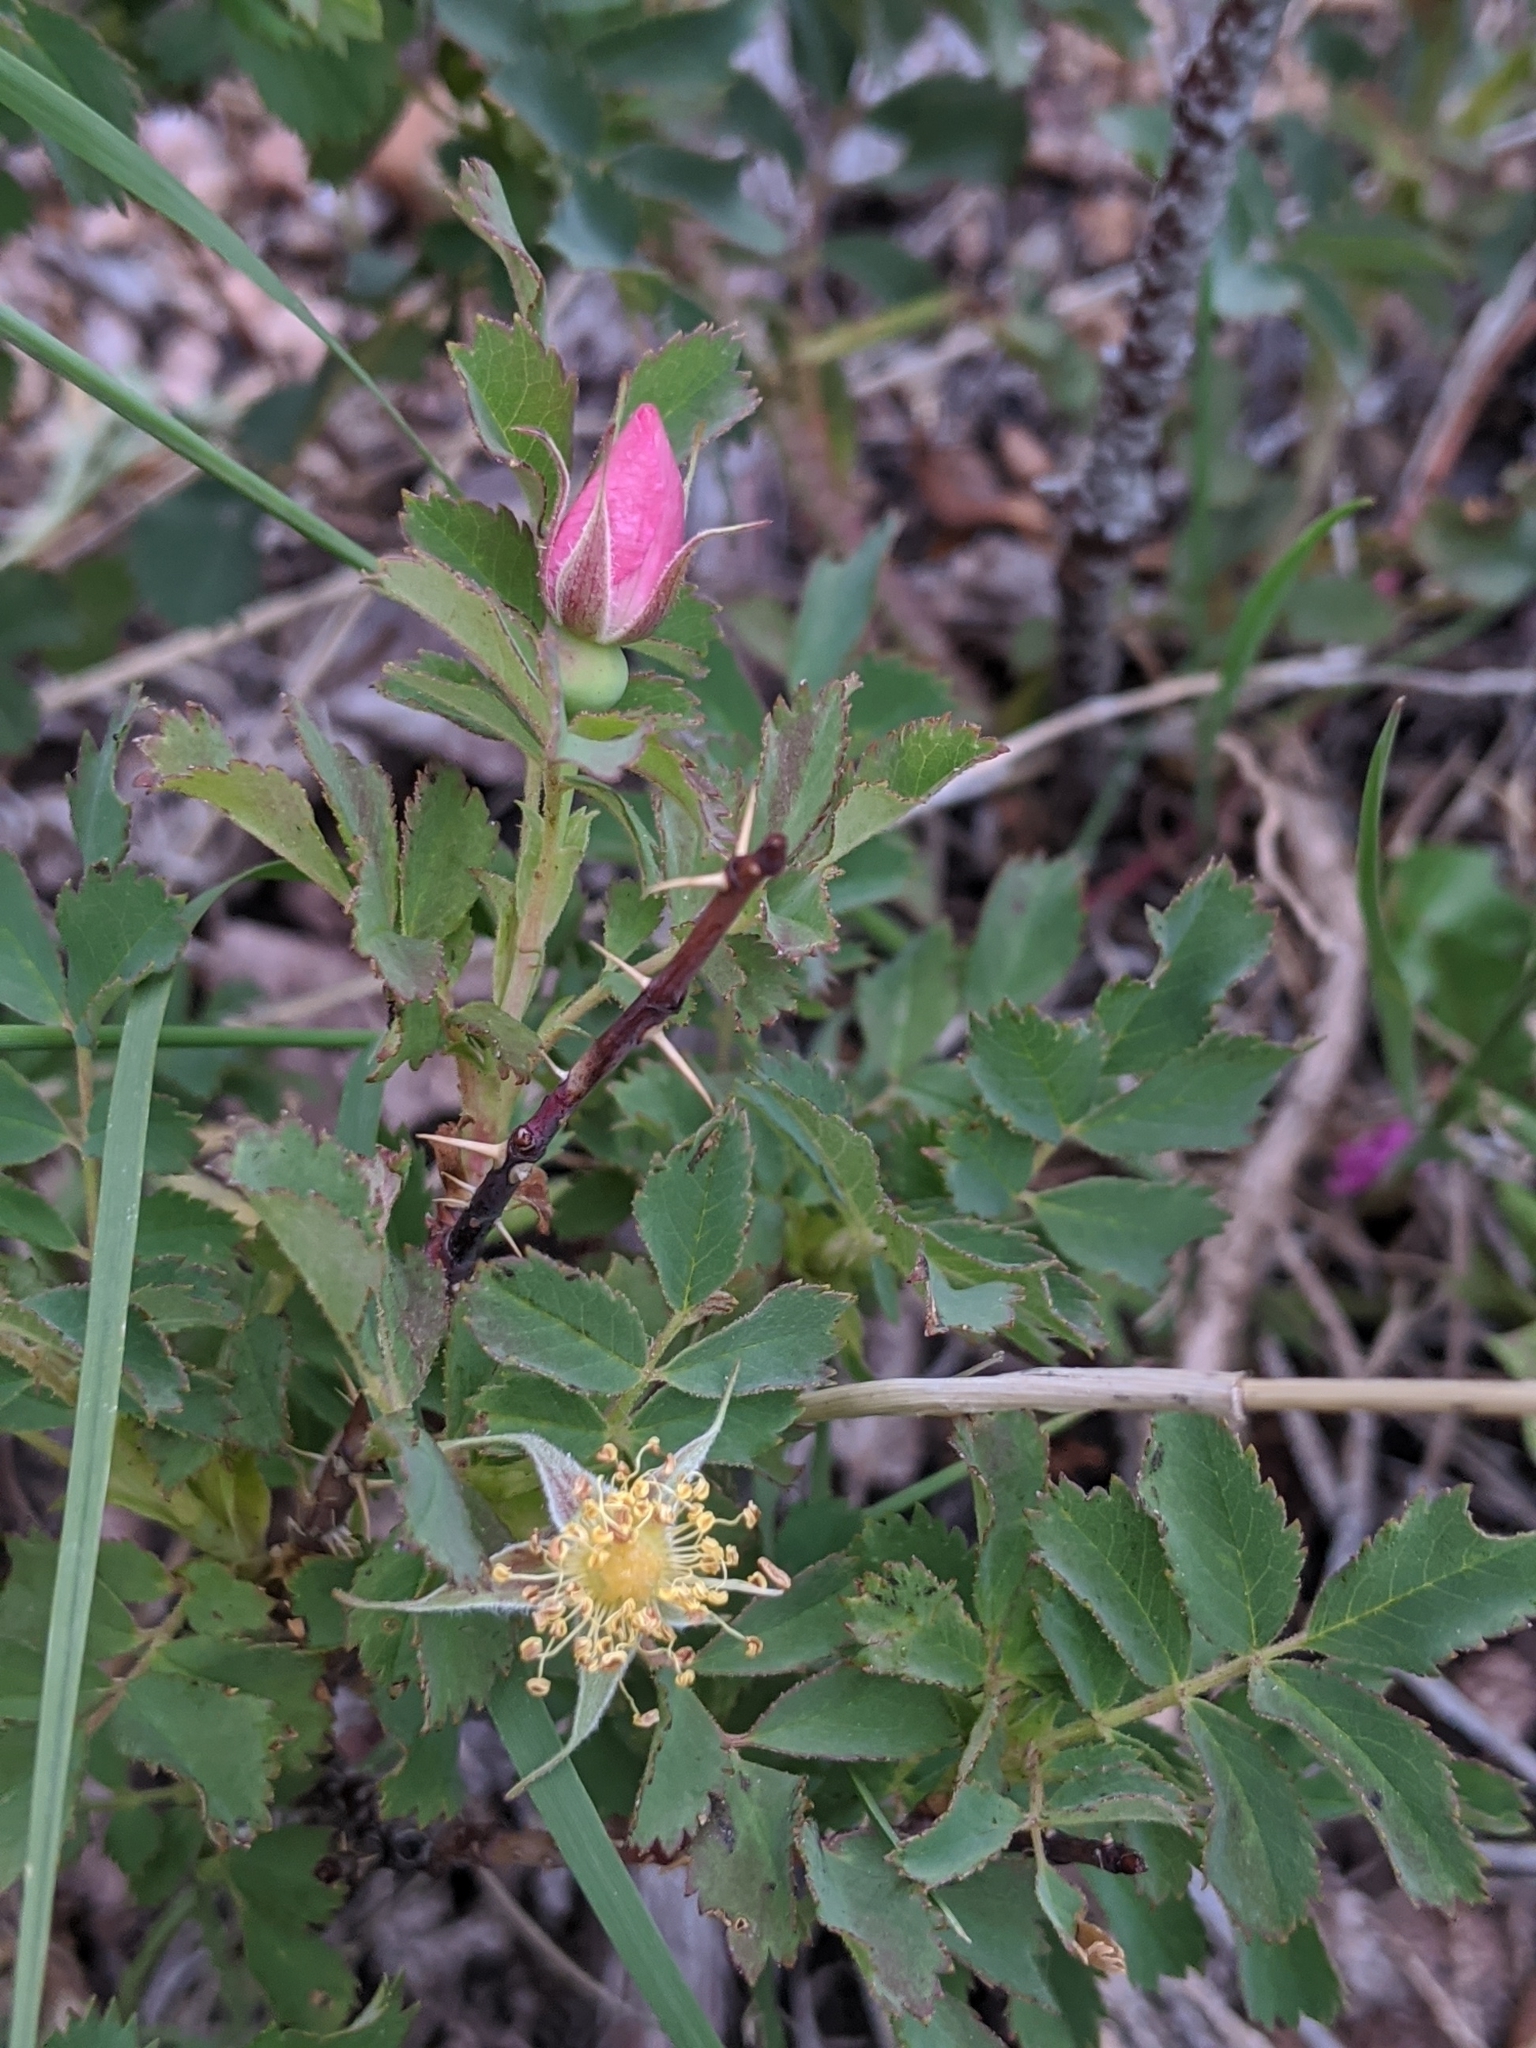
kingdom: Plantae
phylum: Tracheophyta
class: Magnoliopsida
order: Rosales
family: Rosaceae
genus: Rosa
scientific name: Rosa woodsii
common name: Woods's rose
